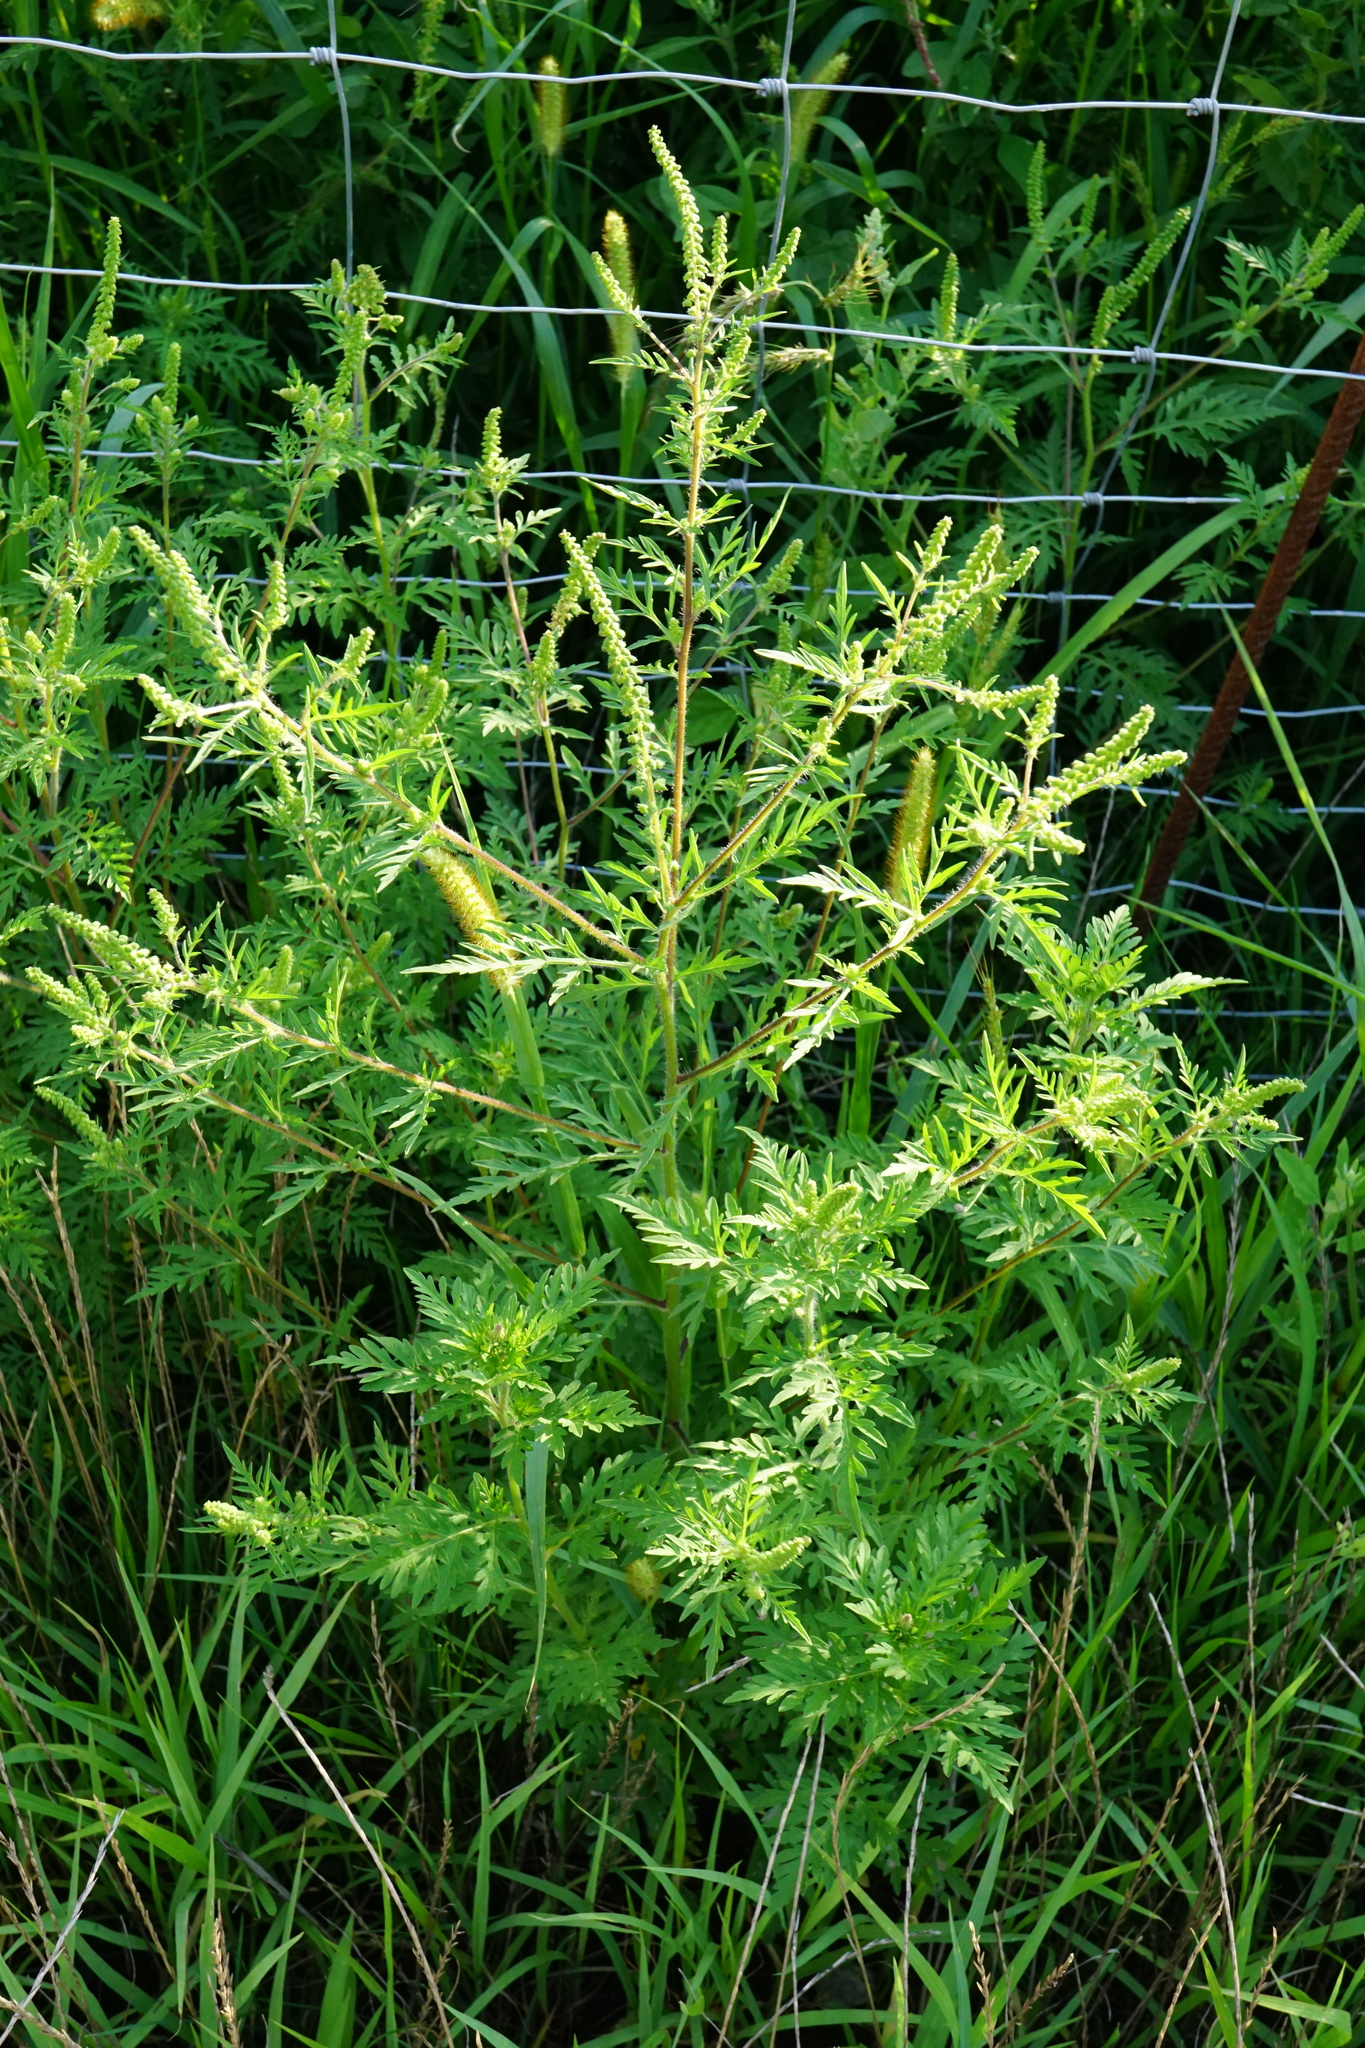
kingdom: Plantae
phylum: Tracheophyta
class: Magnoliopsida
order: Asterales
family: Asteraceae
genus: Ambrosia
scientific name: Ambrosia artemisiifolia
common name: Annual ragweed
